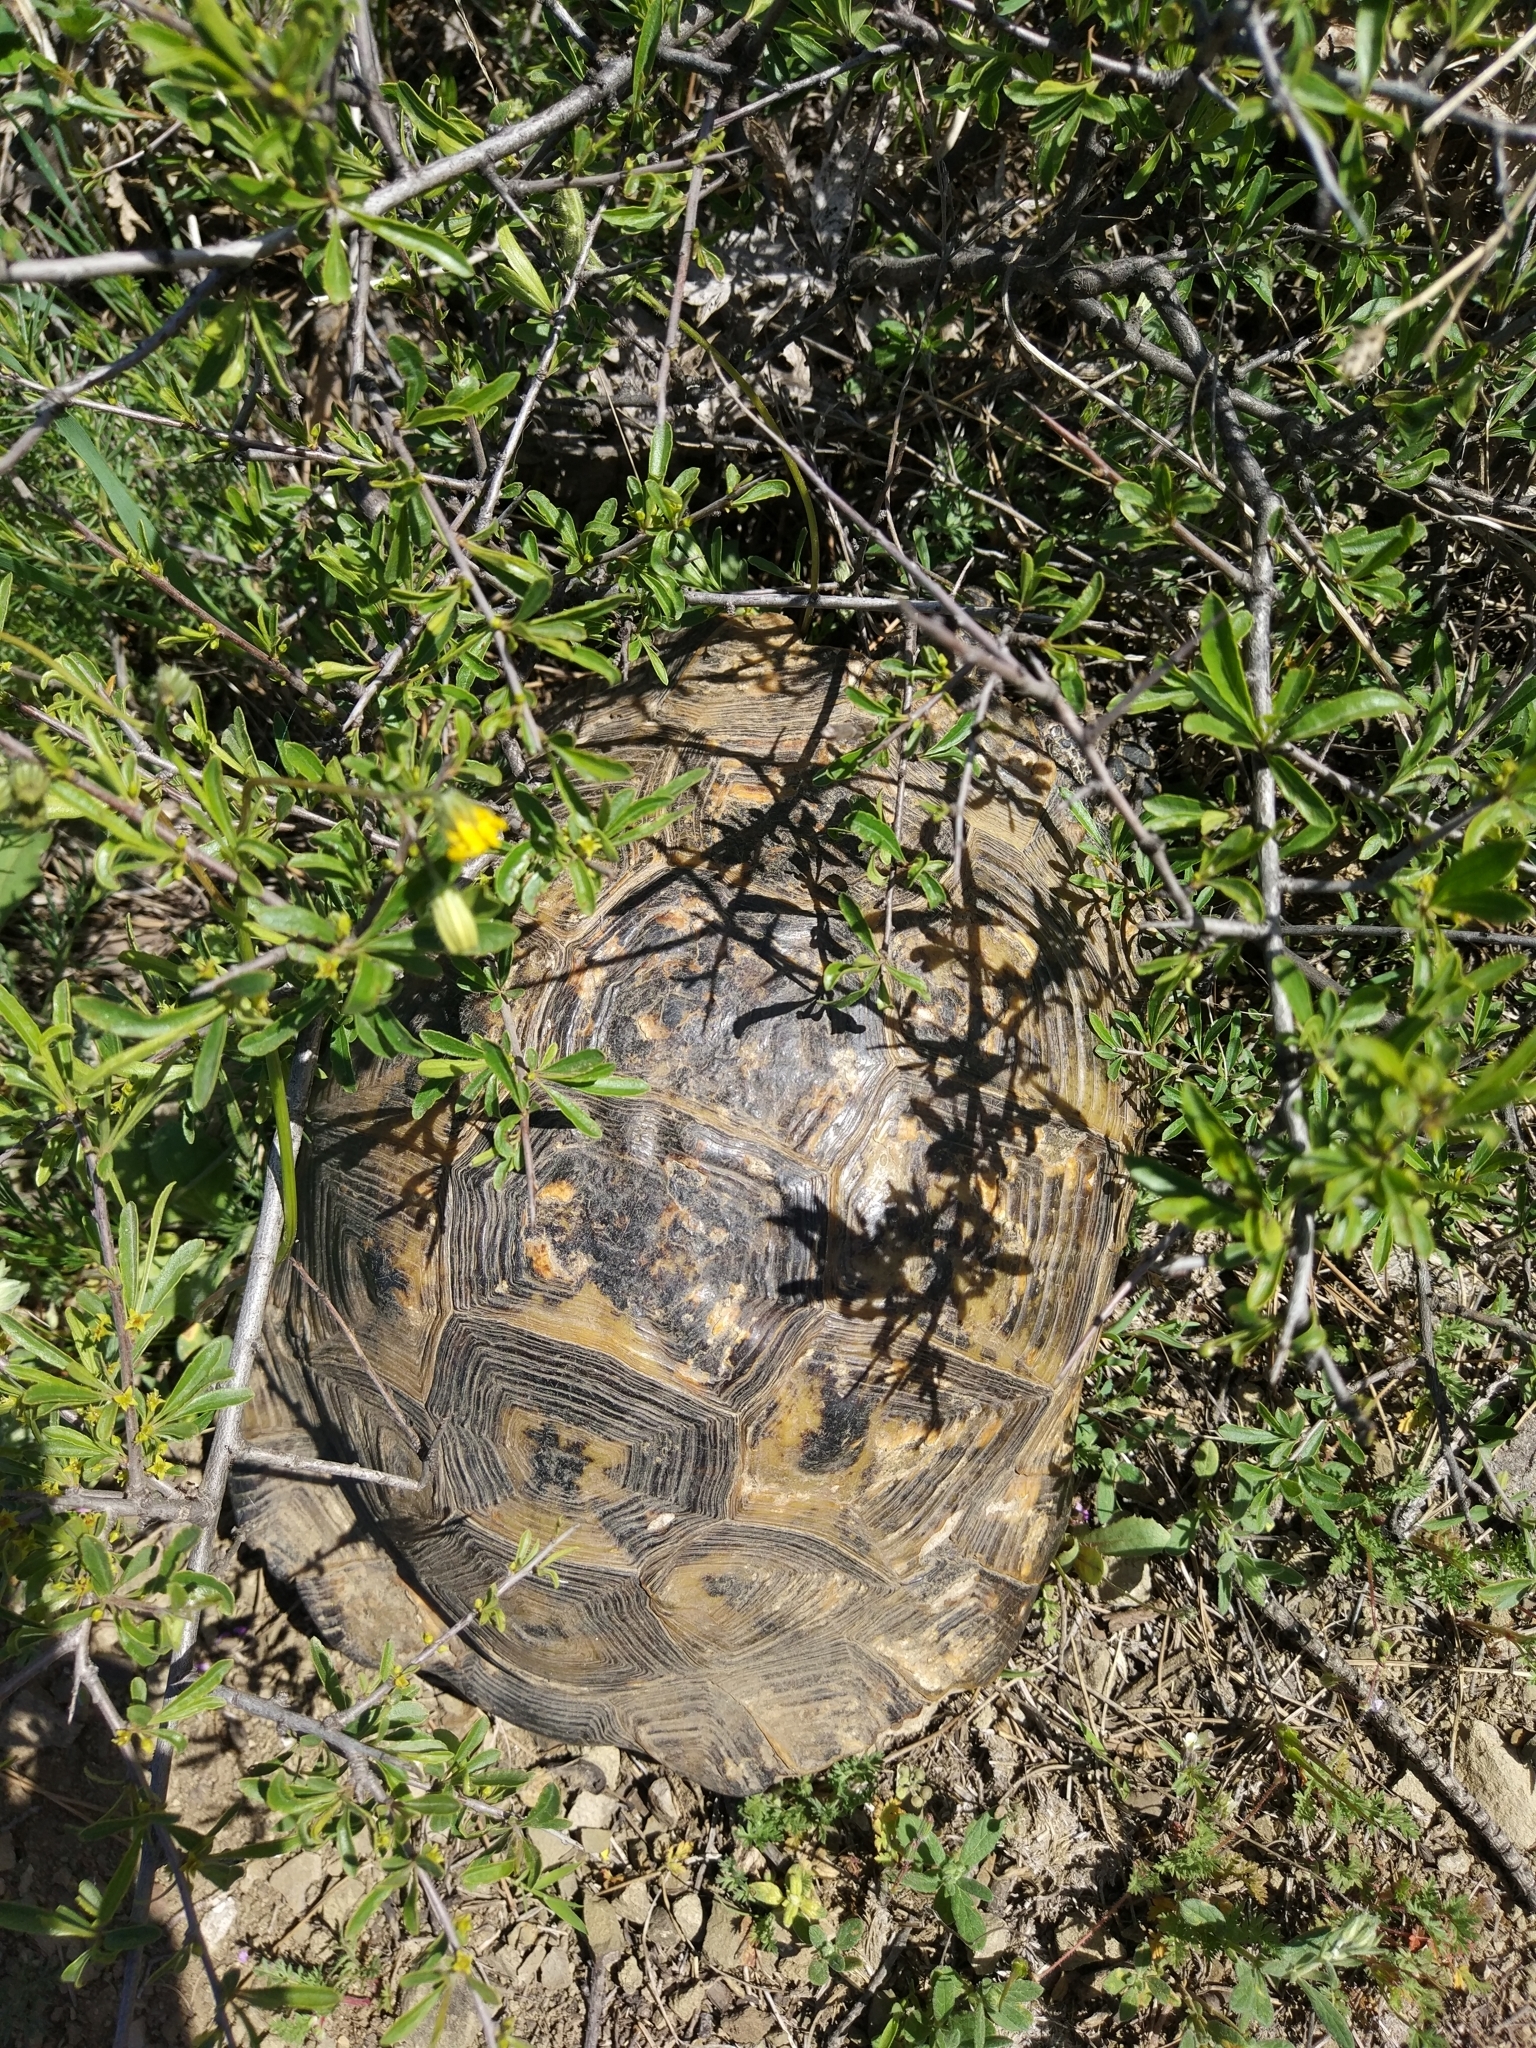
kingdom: Animalia
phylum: Chordata
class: Testudines
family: Testudinidae
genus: Testudo
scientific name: Testudo graeca
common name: Common tortoise
